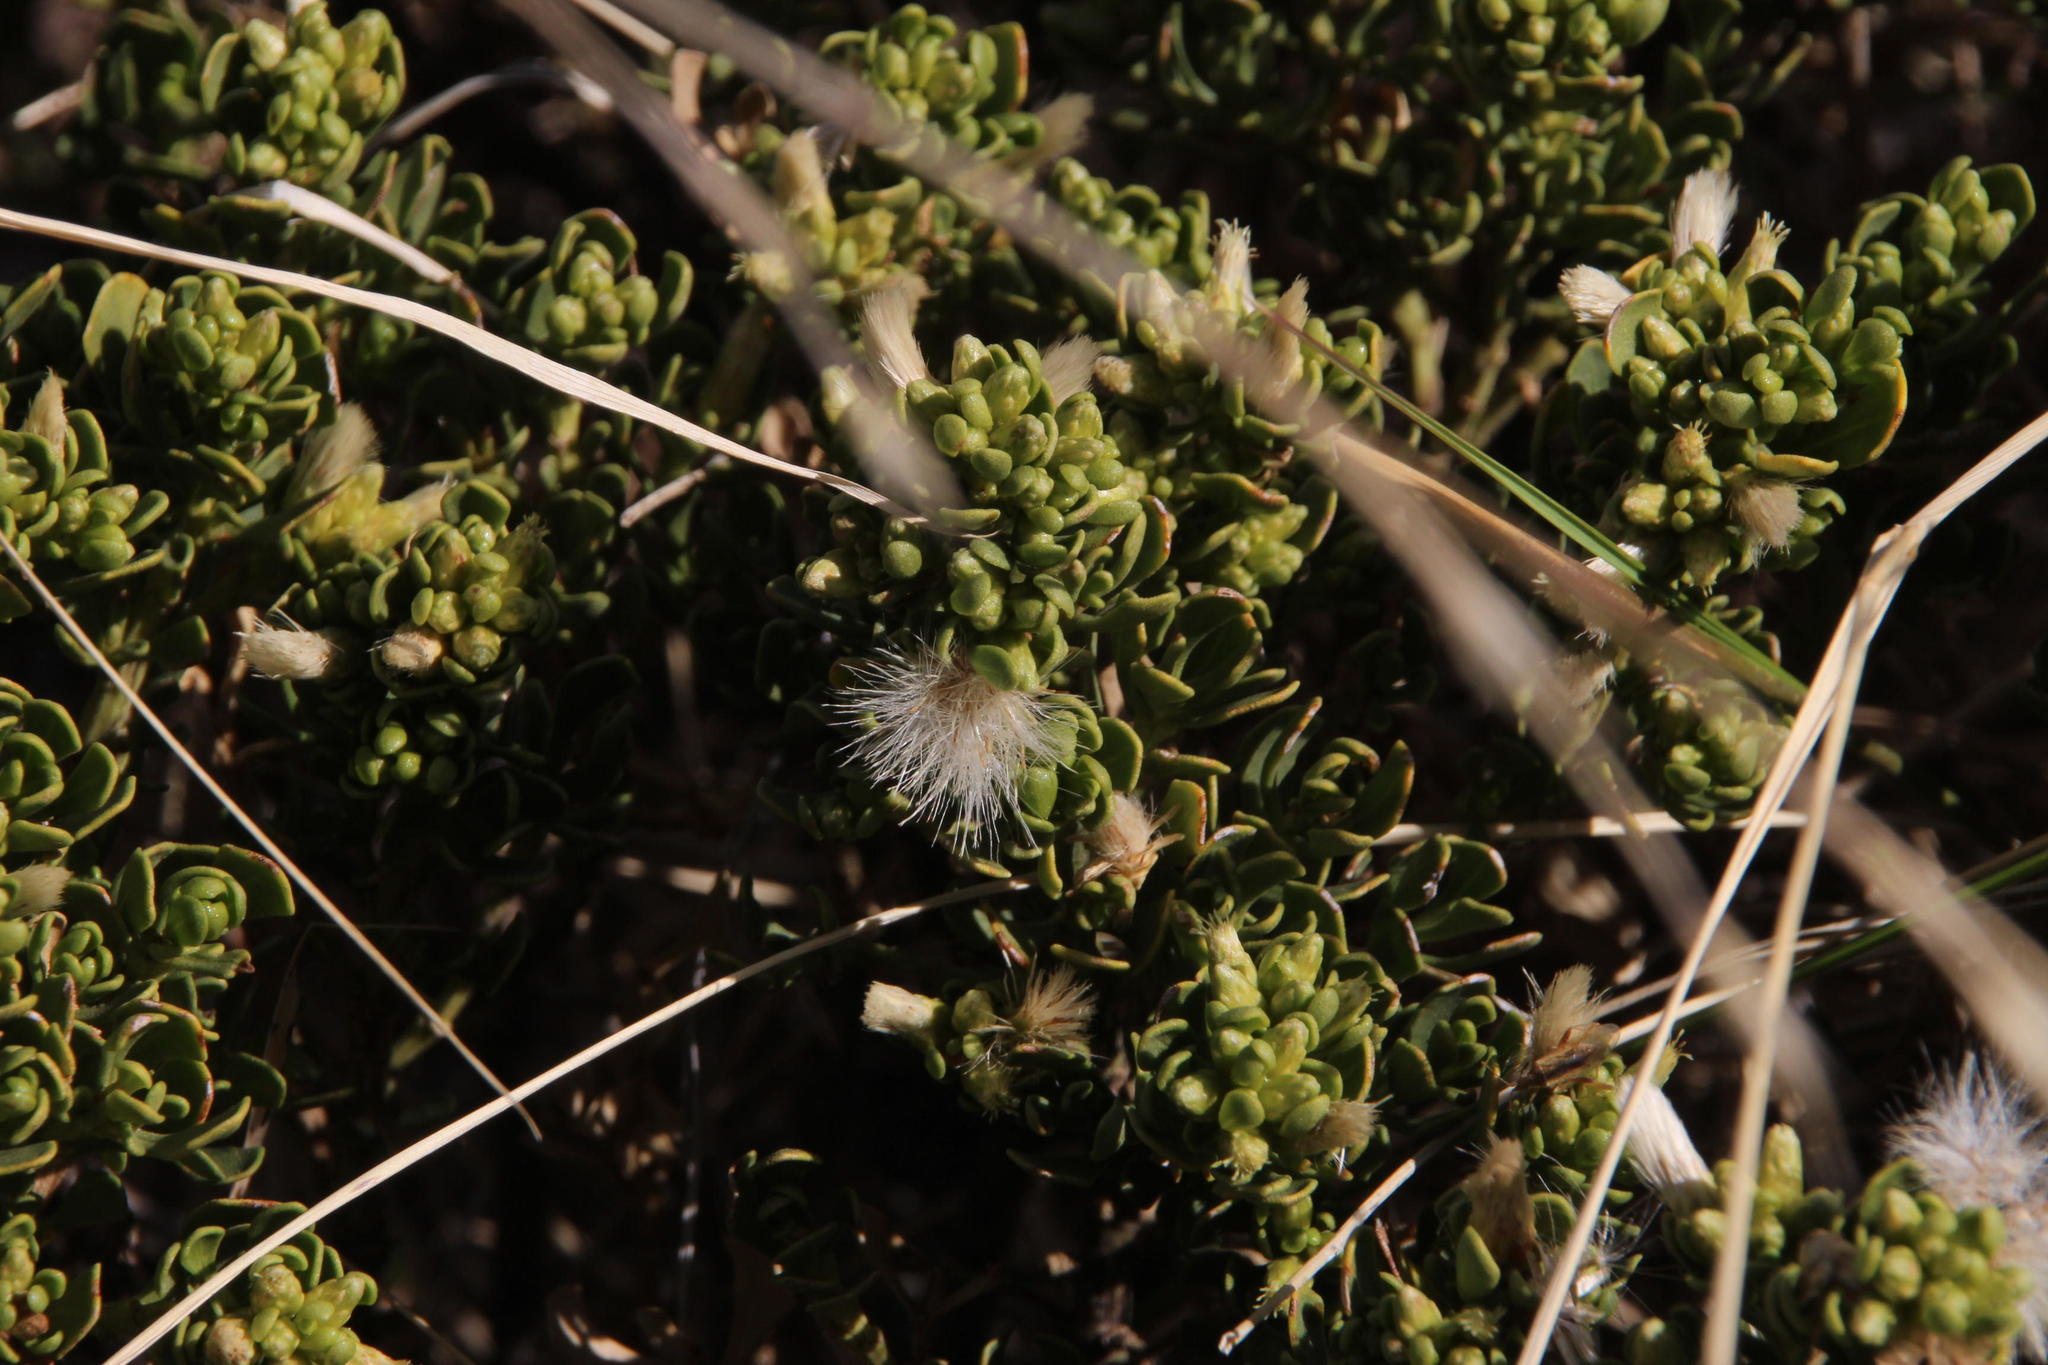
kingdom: Plantae
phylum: Tracheophyta
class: Magnoliopsida
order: Asterales
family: Asteraceae
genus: Baccharis
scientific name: Baccharis papillosa
